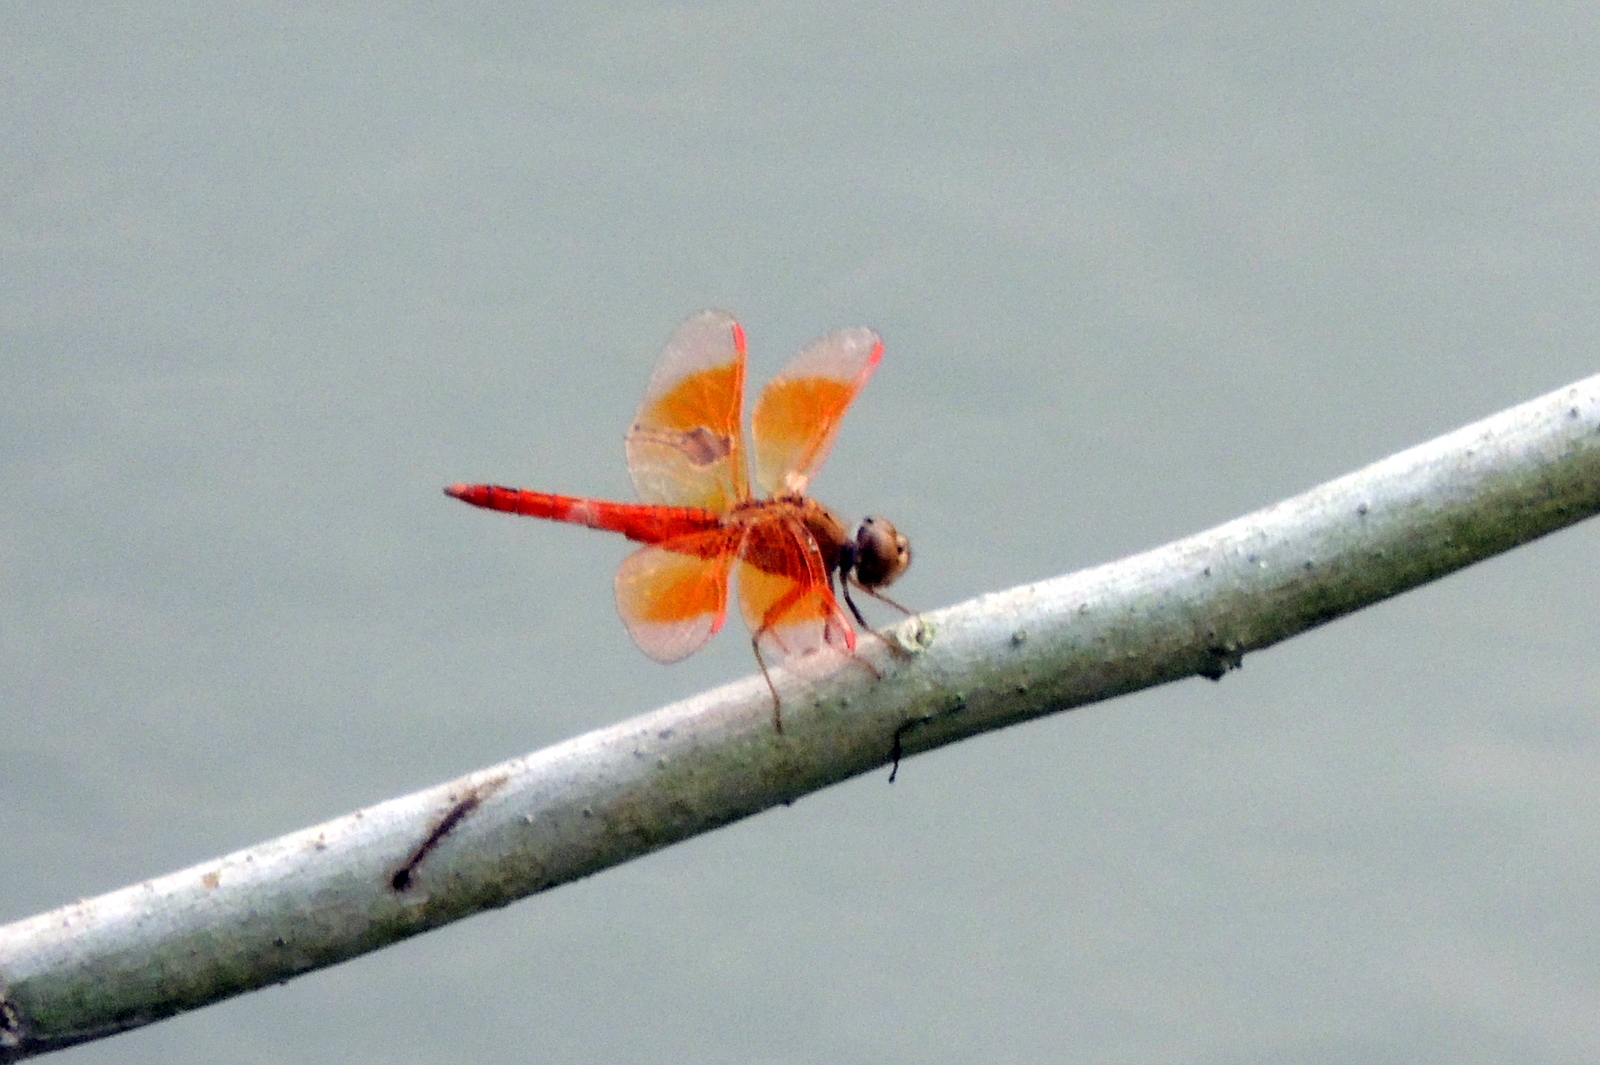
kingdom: Animalia
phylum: Arthropoda
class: Insecta
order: Odonata
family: Libellulidae
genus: Brachythemis
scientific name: Brachythemis contaminata
